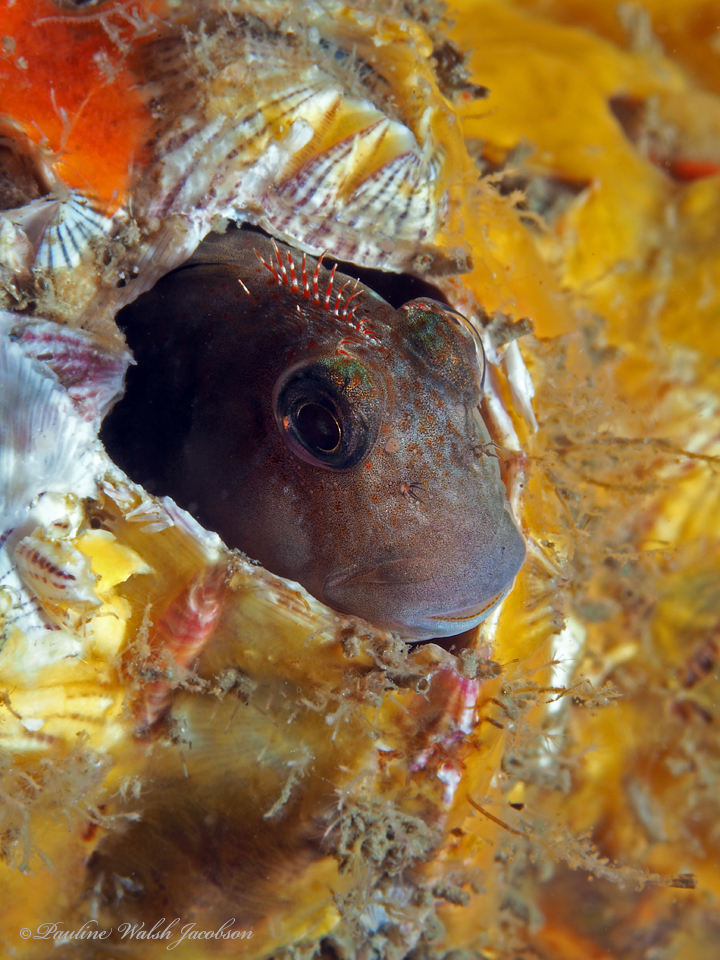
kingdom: Animalia
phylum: Chordata
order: Perciformes
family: Blenniidae
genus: Scartella
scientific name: Scartella cristata
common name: Molly miller
